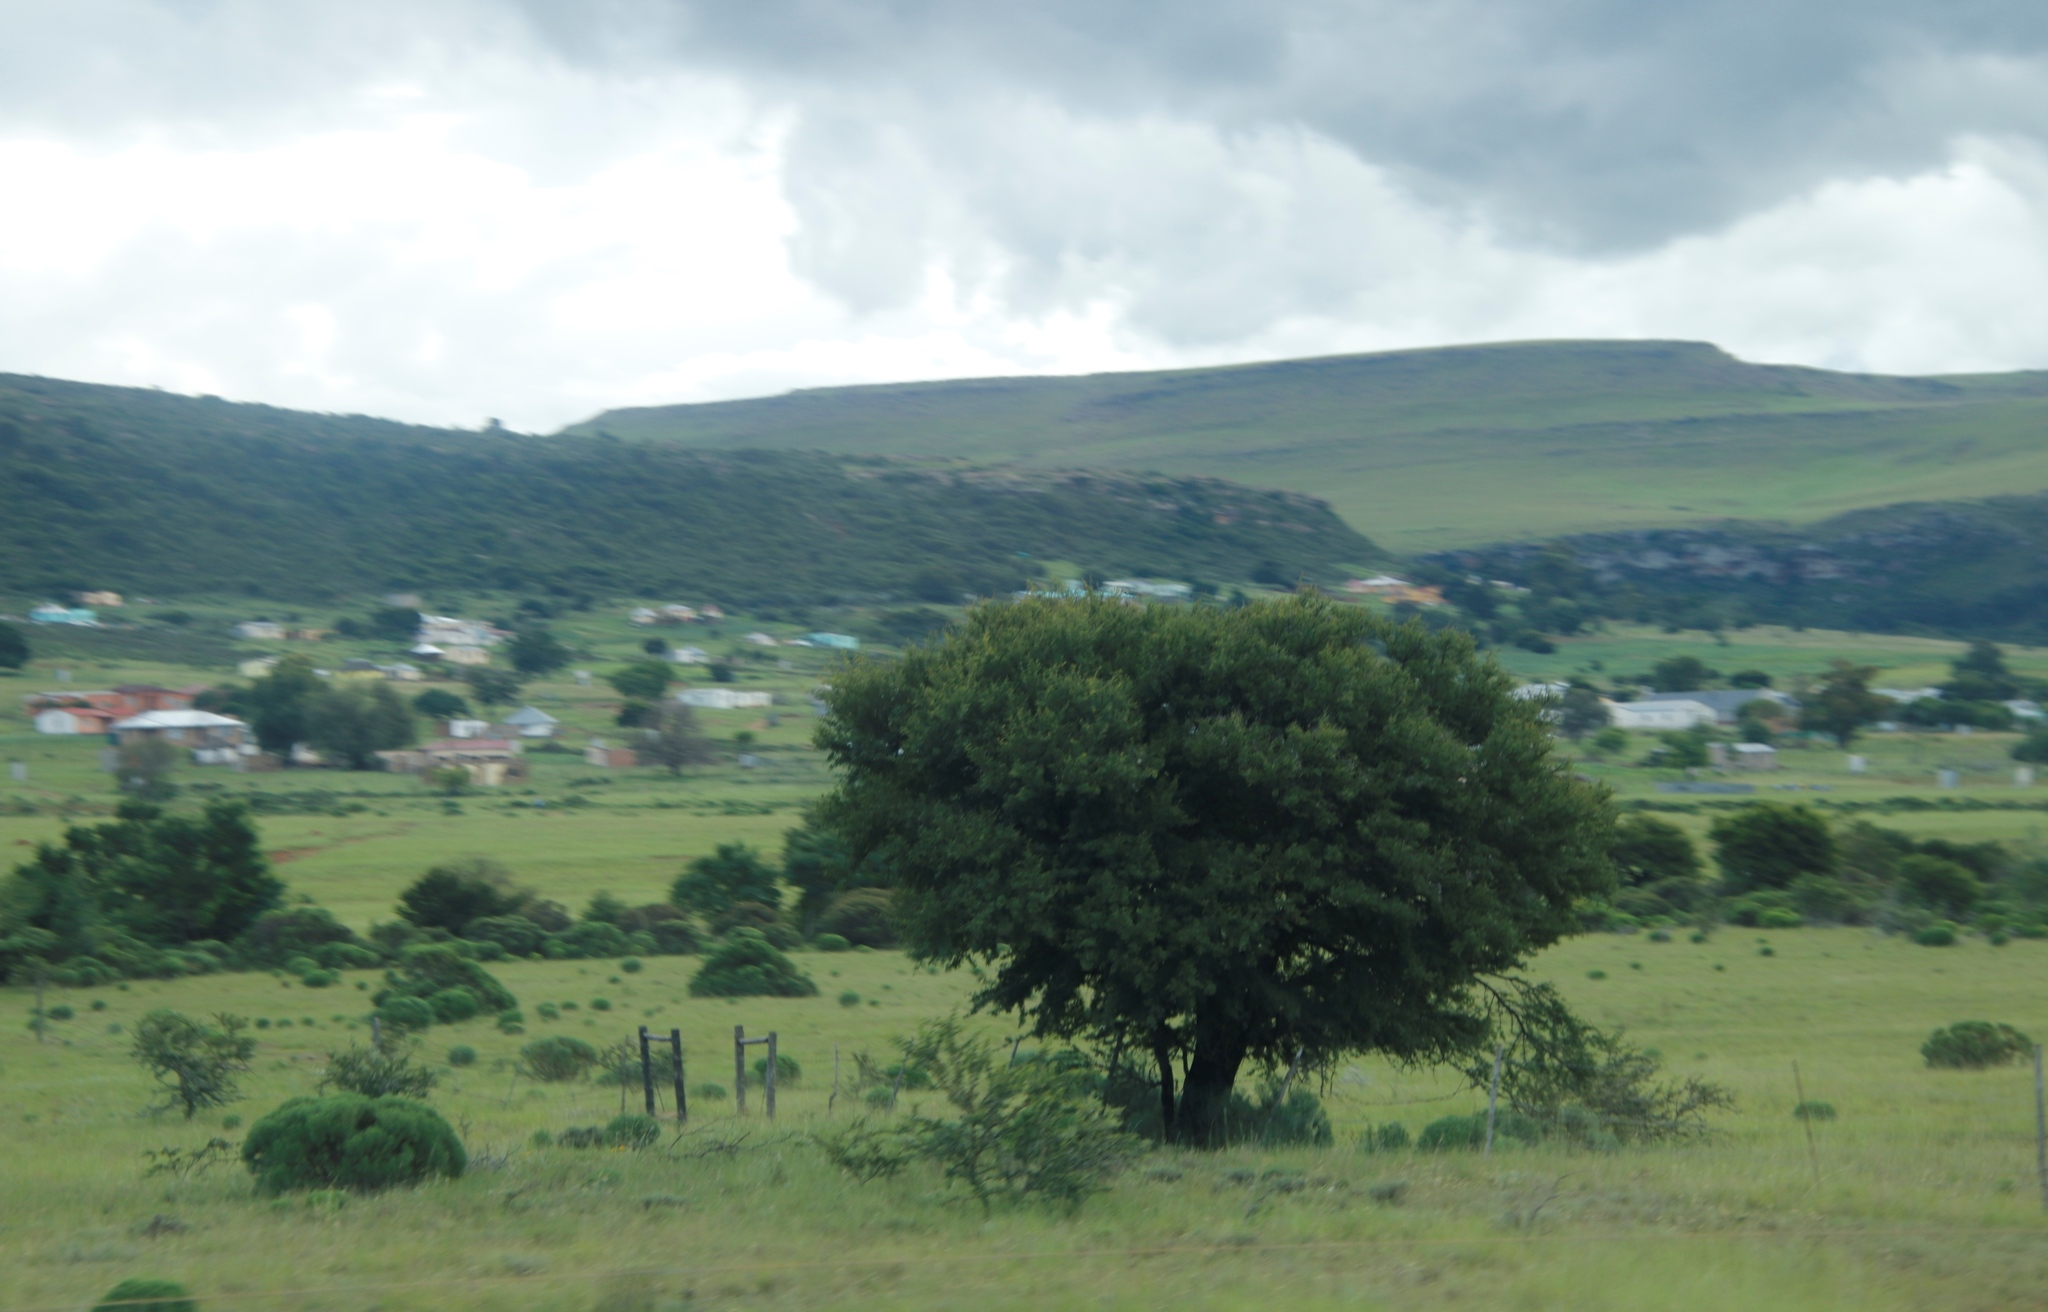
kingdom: Plantae
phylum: Tracheophyta
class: Magnoliopsida
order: Fabales
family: Fabaceae
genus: Vachellia
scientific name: Vachellia karroo
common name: Sweet thorn
